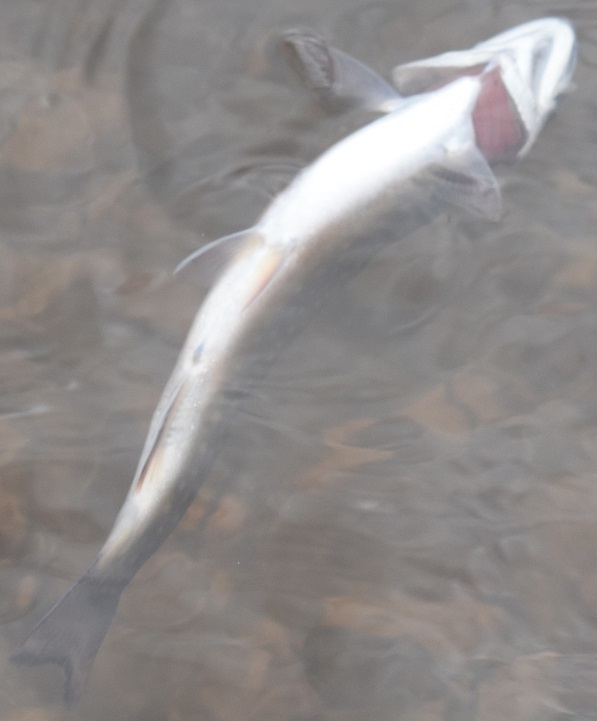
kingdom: Animalia
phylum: Chordata
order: Salmoniformes
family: Salmonidae
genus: Salvelinus
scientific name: Salvelinus fontinalis
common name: Brook trout
